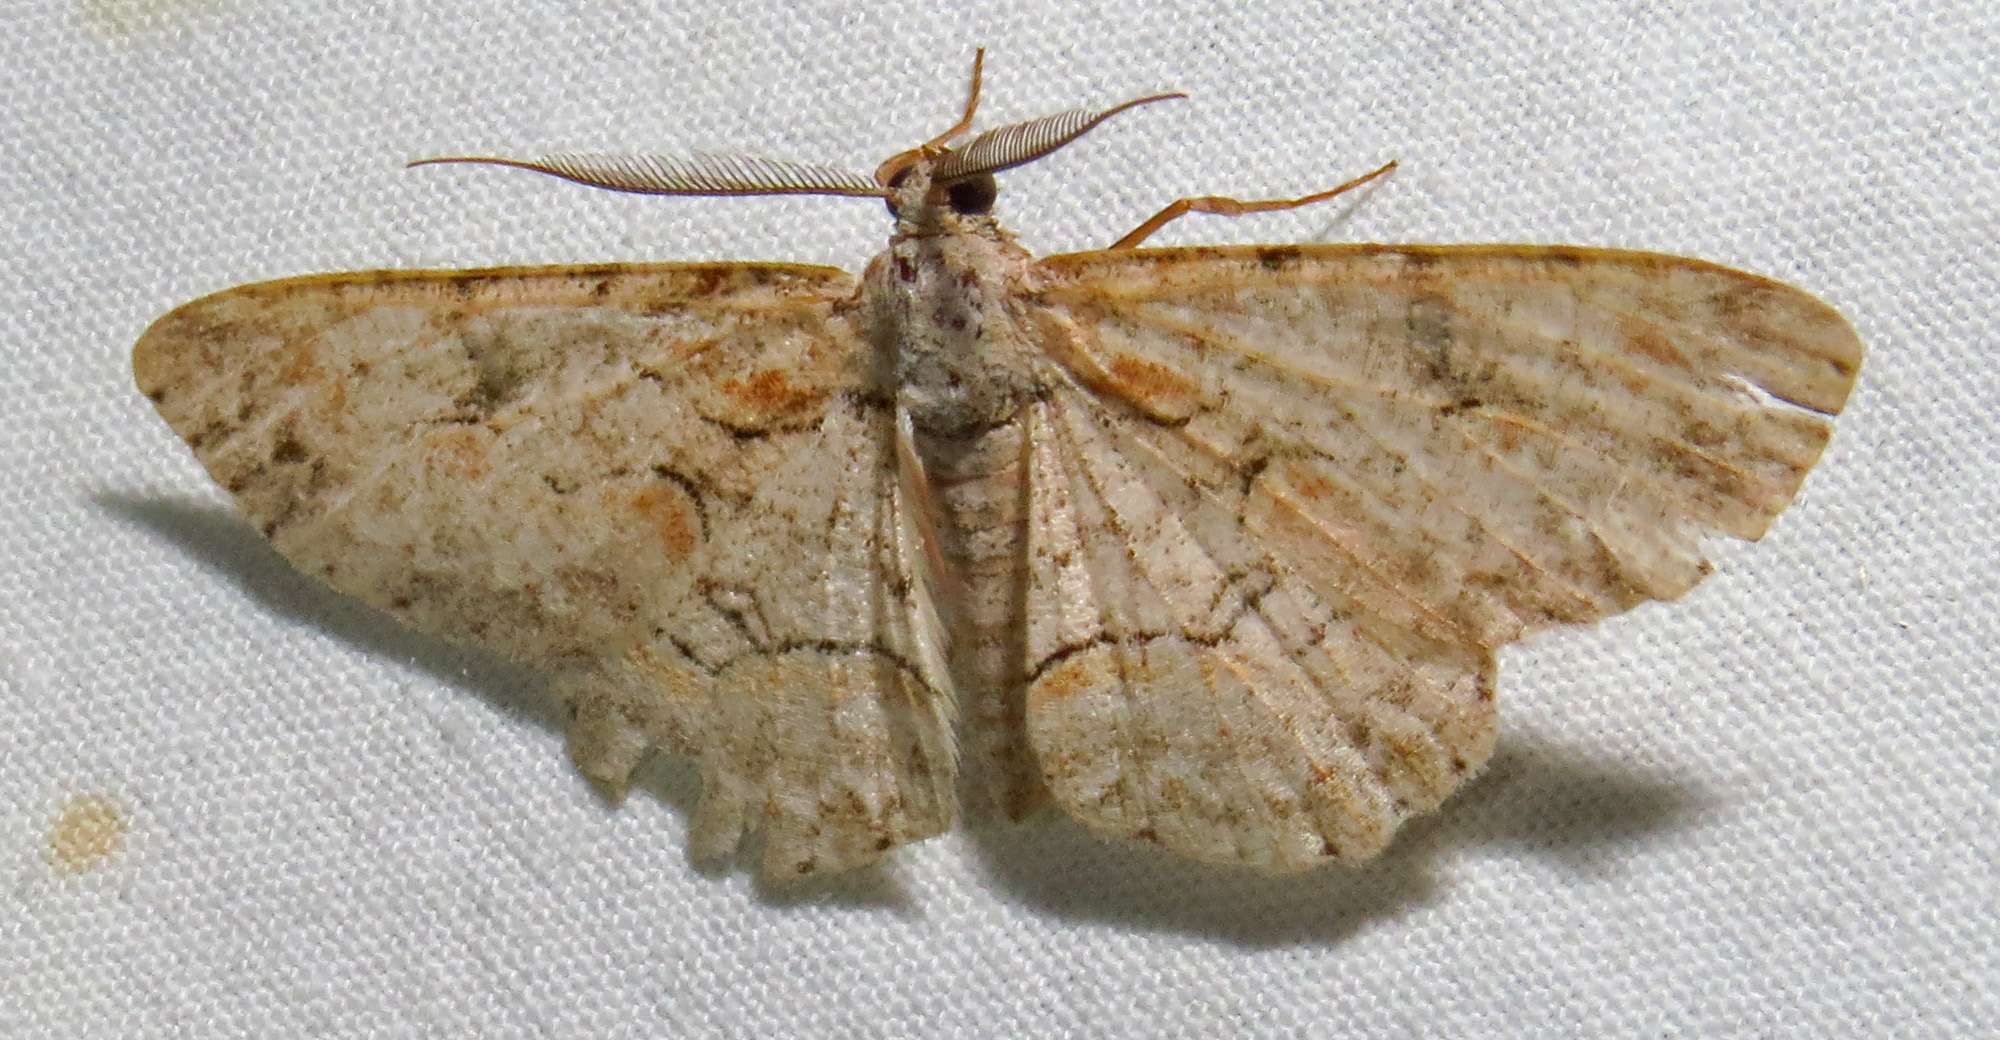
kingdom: Animalia
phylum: Arthropoda
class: Insecta
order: Lepidoptera
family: Geometridae
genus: Iridopsis
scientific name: Iridopsis defectaria
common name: Brown-shaded gray
